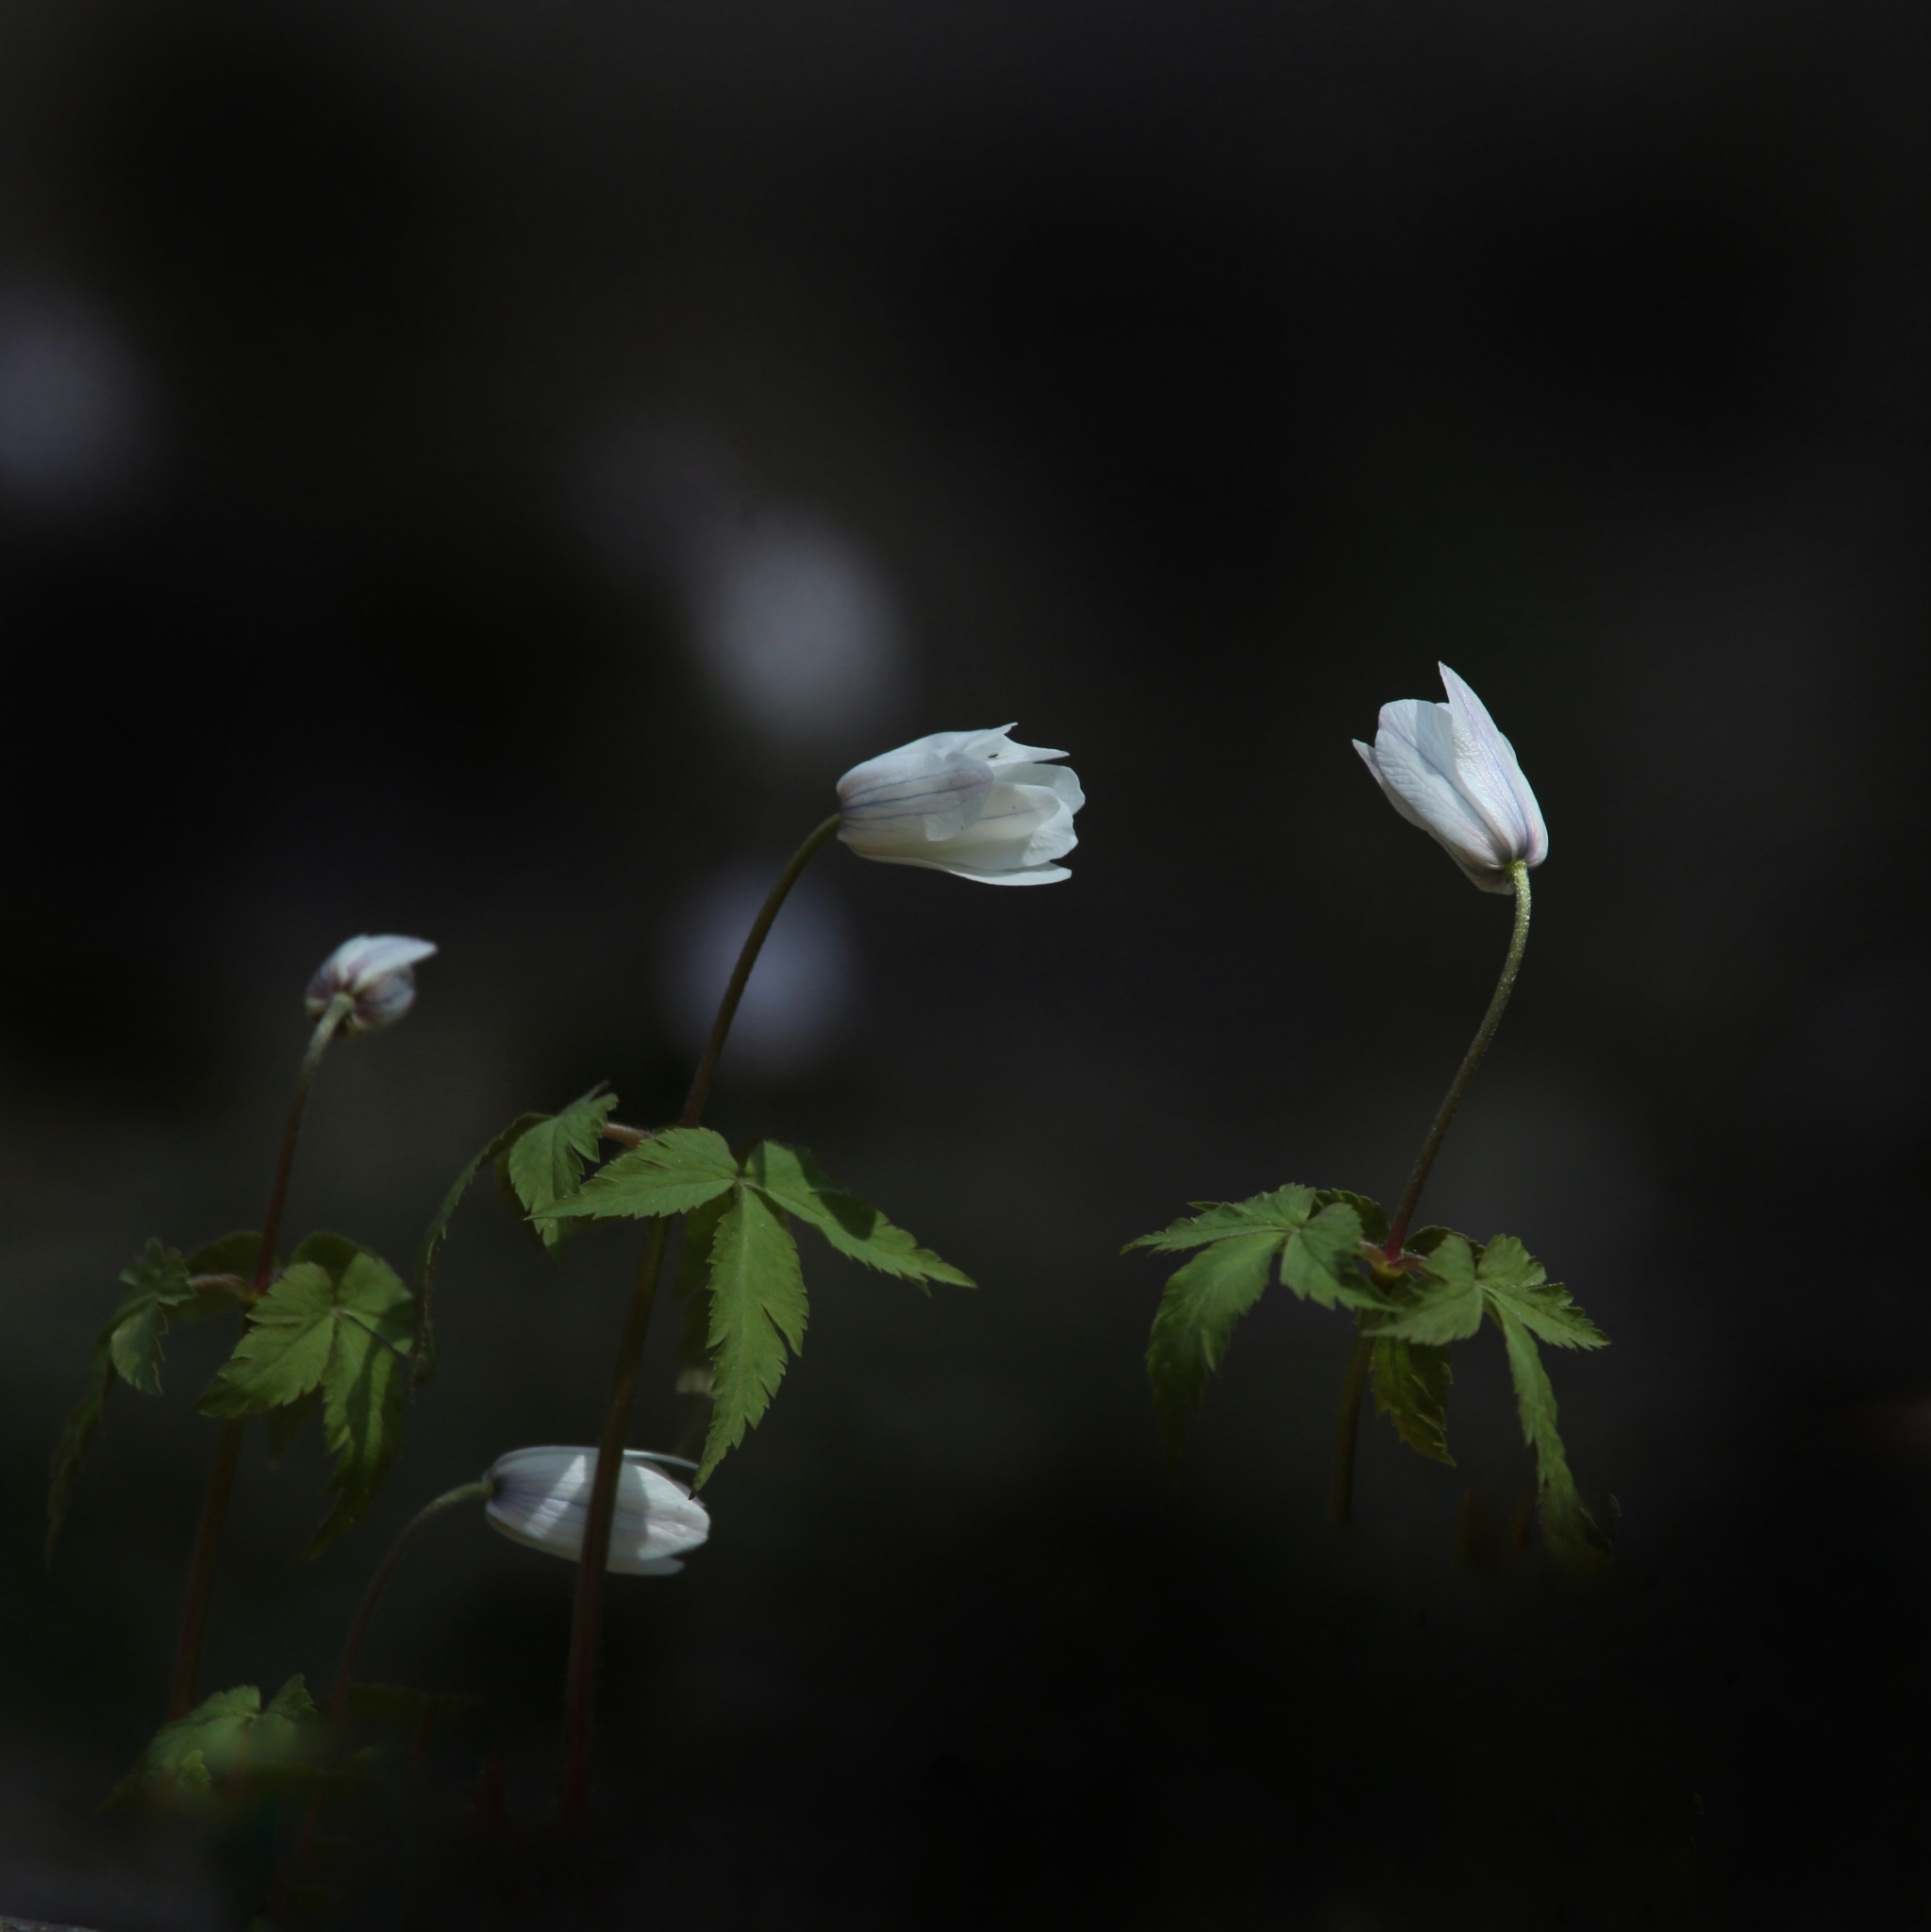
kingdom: Plantae
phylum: Tracheophyta
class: Magnoliopsida
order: Ranunculales
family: Ranunculaceae
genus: Anemone
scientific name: Anemone altaica
